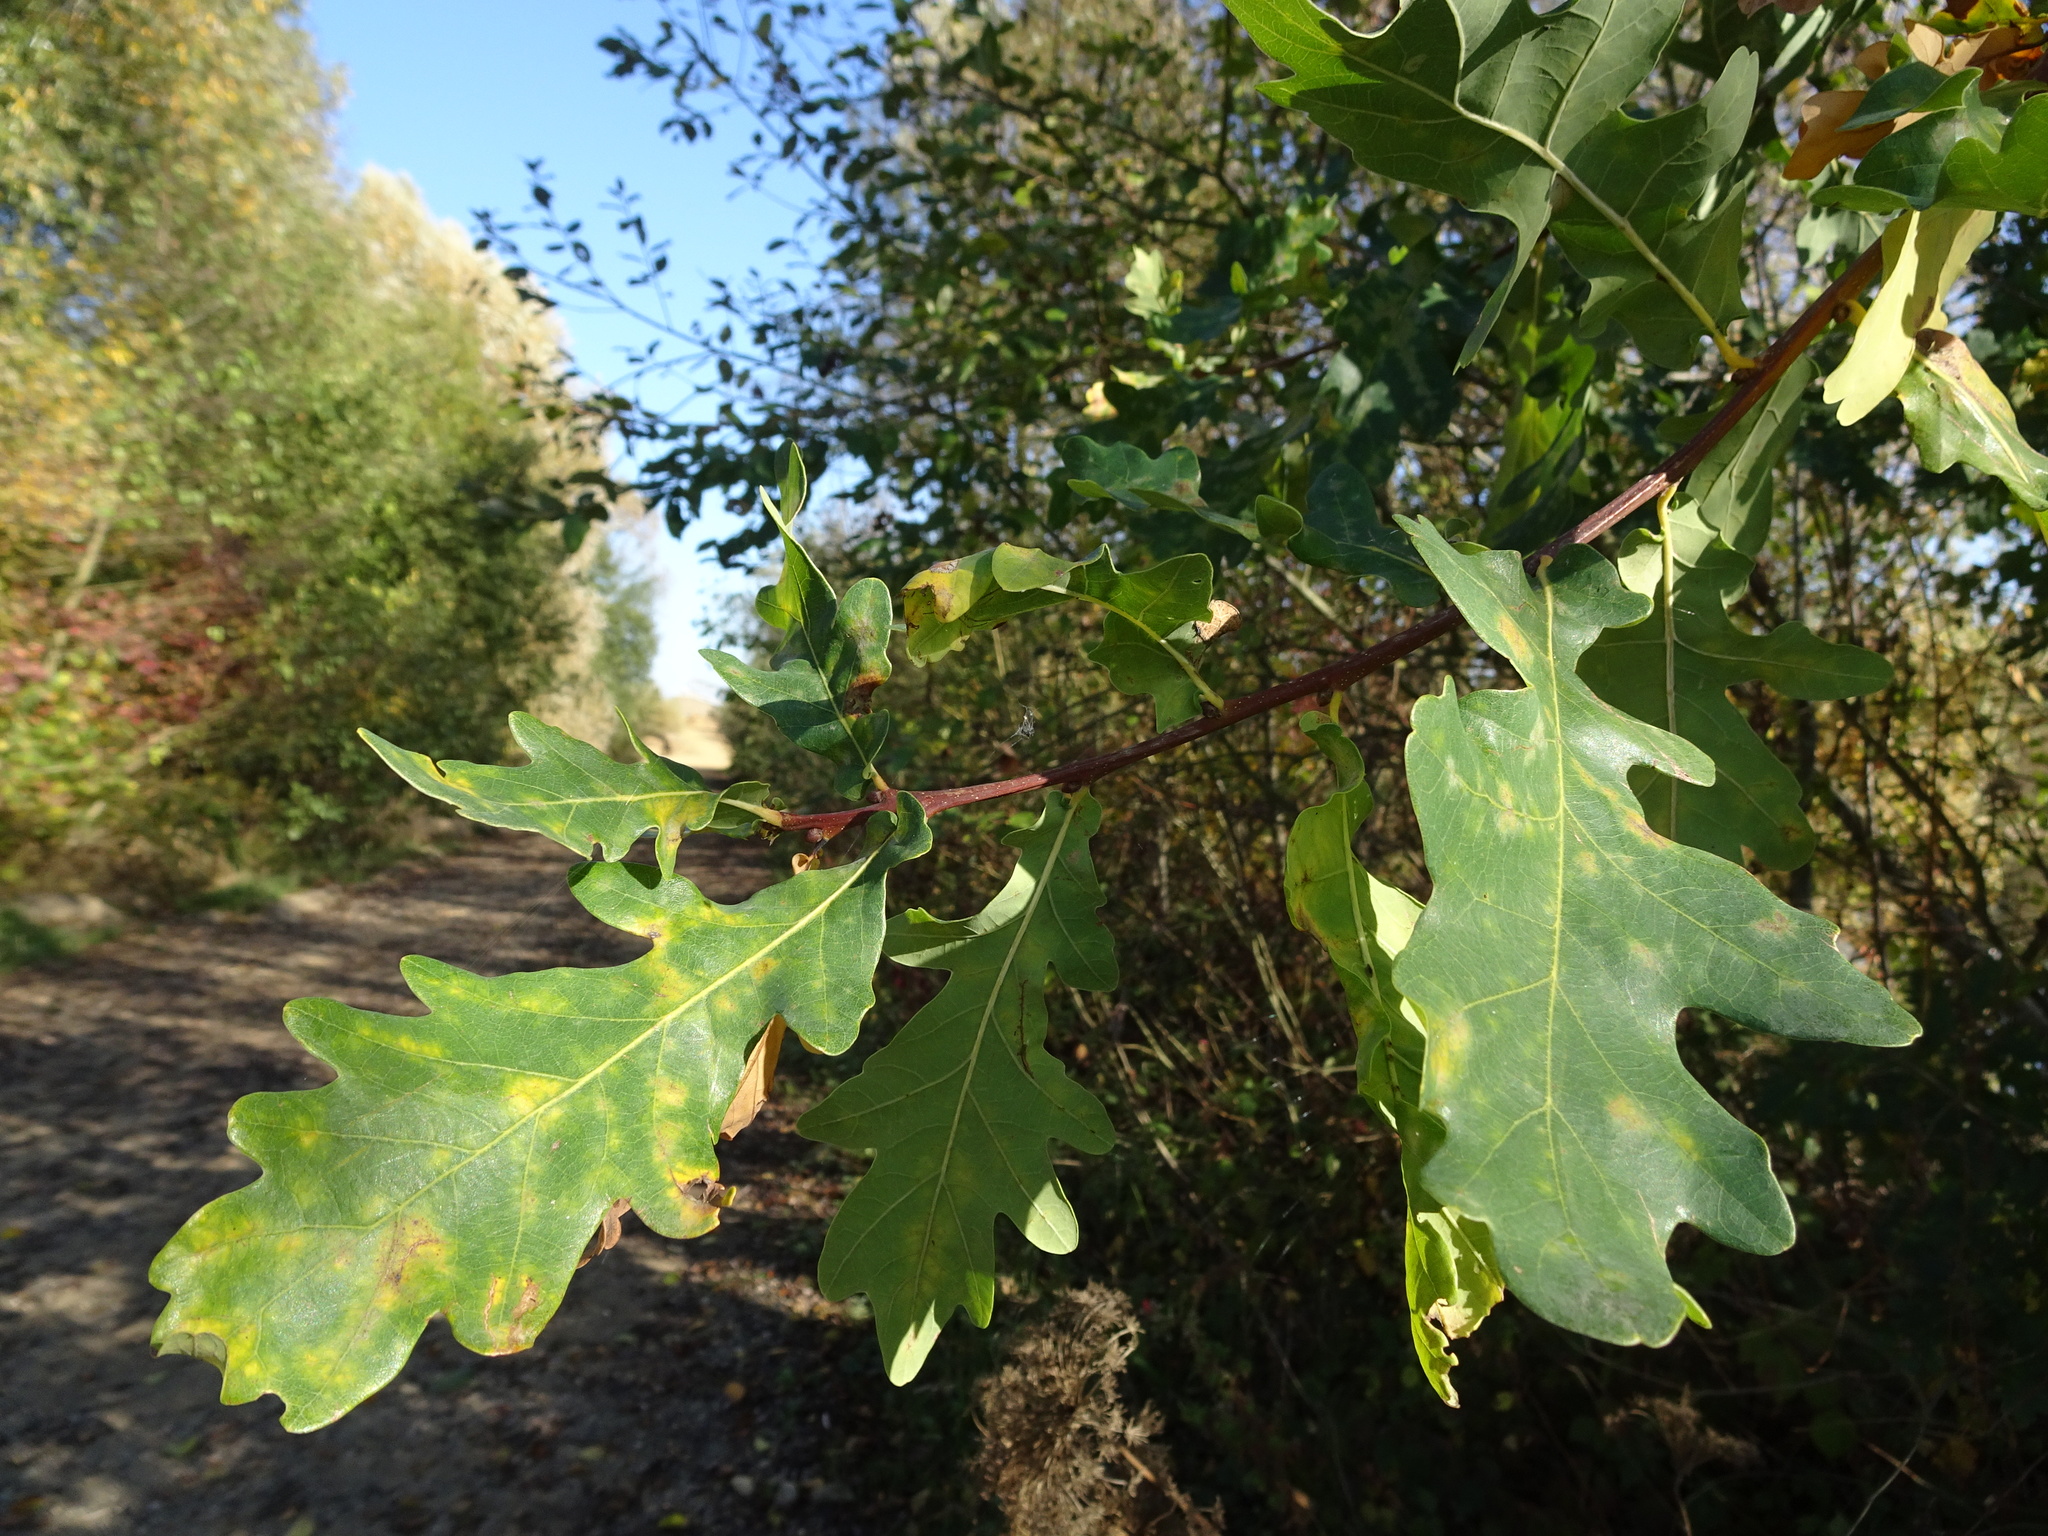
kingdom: Plantae
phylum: Tracheophyta
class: Magnoliopsida
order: Fagales
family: Fagaceae
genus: Quercus
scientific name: Quercus robur
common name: Pedunculate oak
